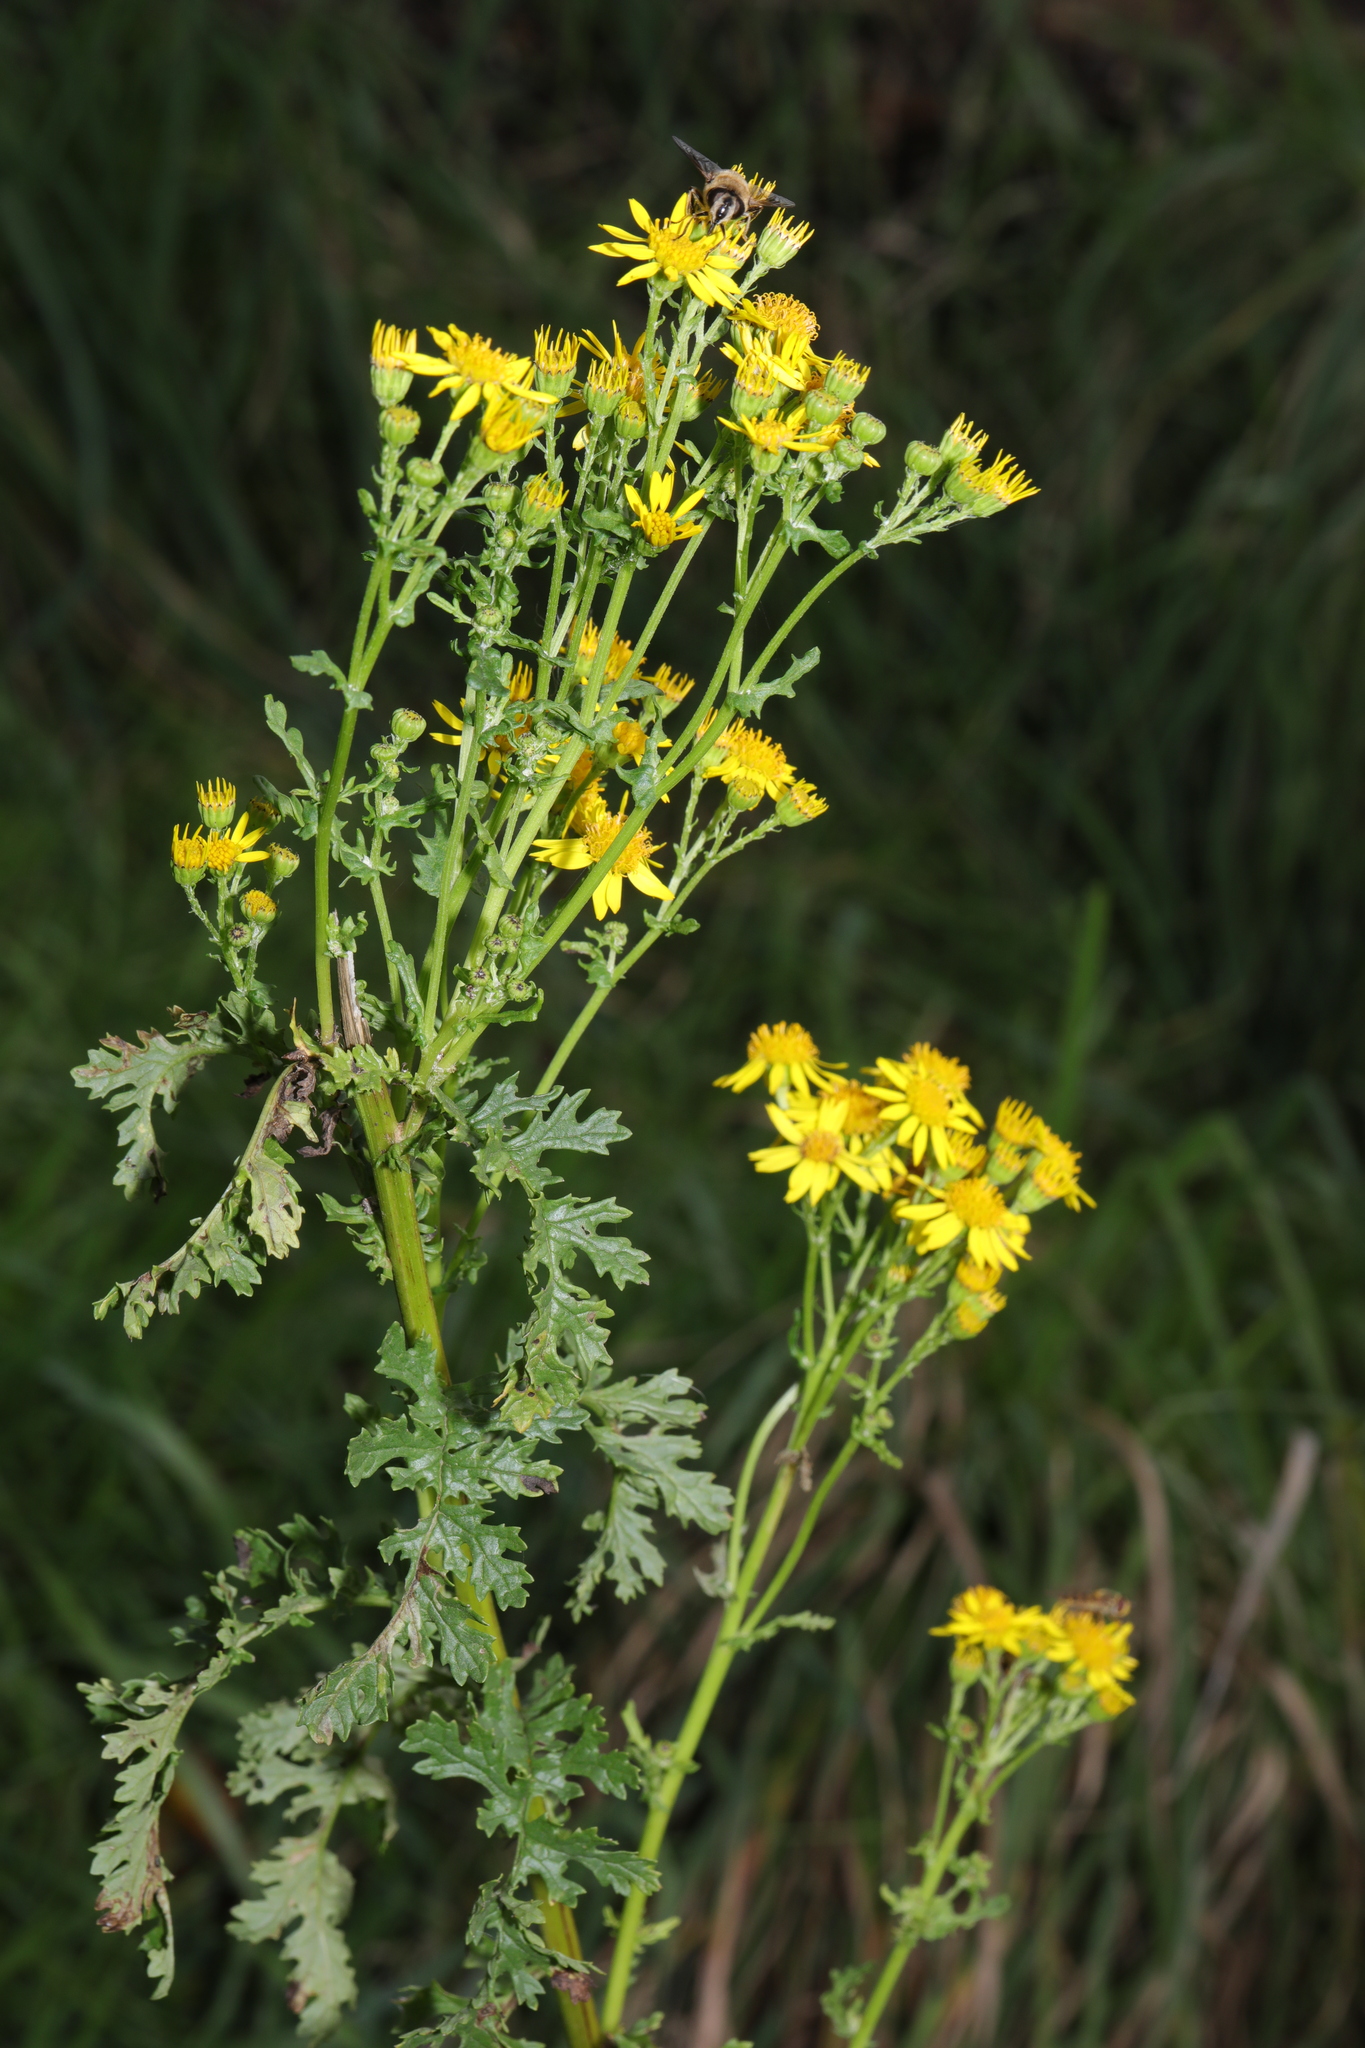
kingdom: Plantae
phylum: Tracheophyta
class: Magnoliopsida
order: Asterales
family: Asteraceae
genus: Jacobaea
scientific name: Jacobaea vulgaris
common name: Stinking willie
